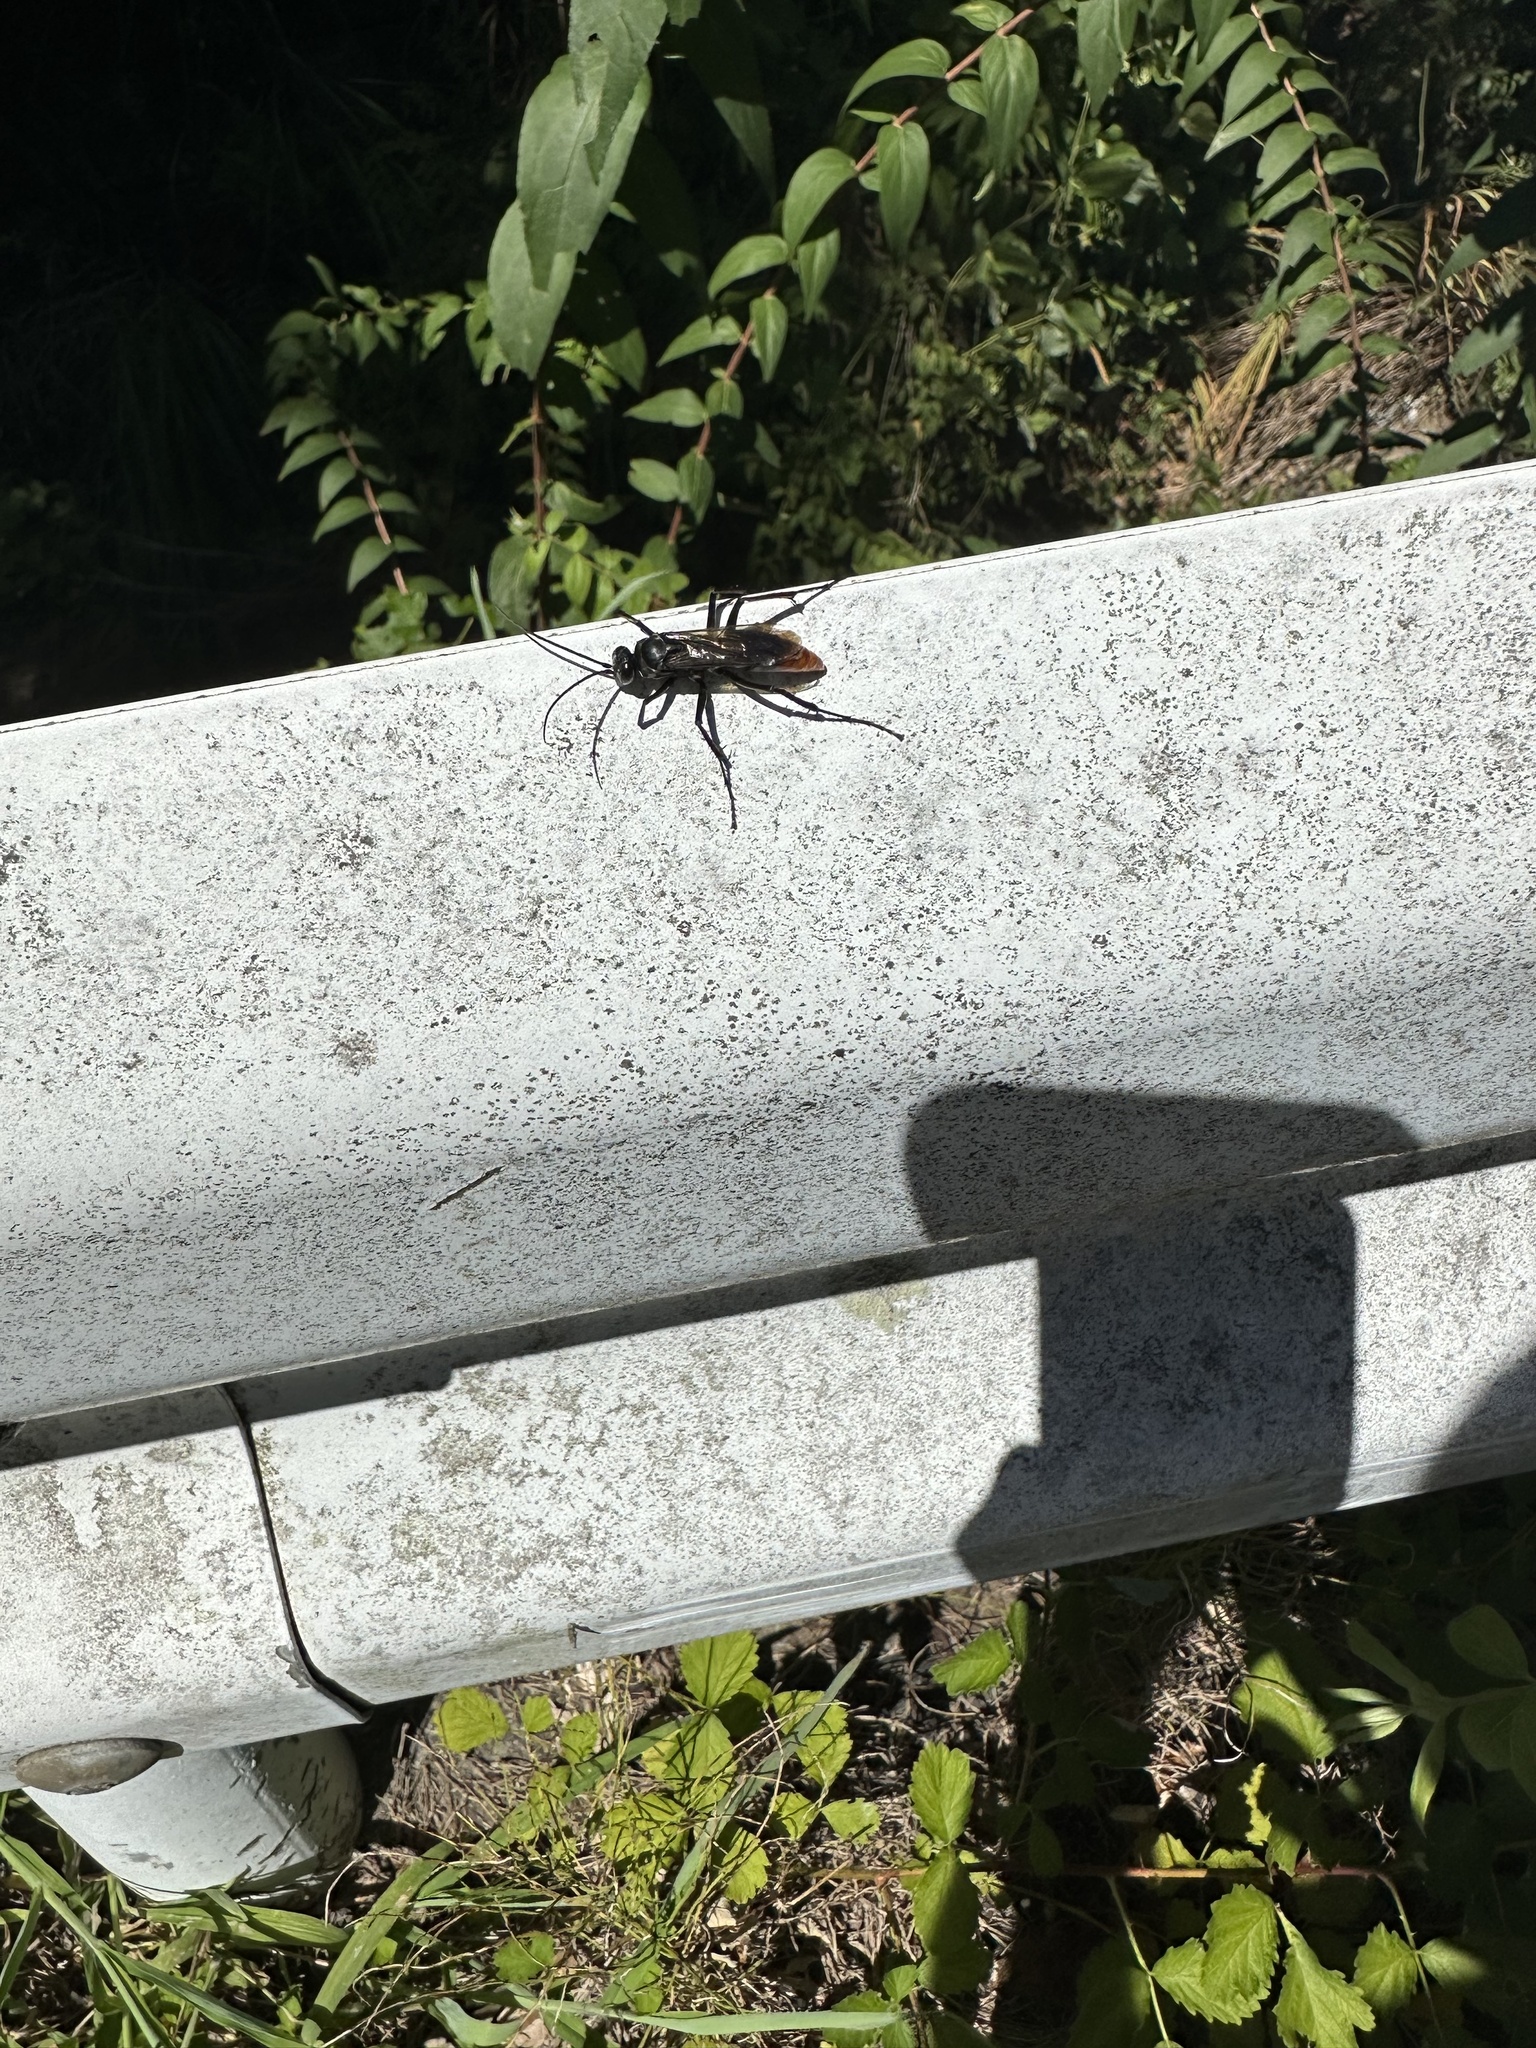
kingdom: Animalia
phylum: Arthropoda
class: Insecta
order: Hymenoptera
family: Pompilidae
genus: Tachypompilus
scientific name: Tachypompilus analis
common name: Spider wasp
